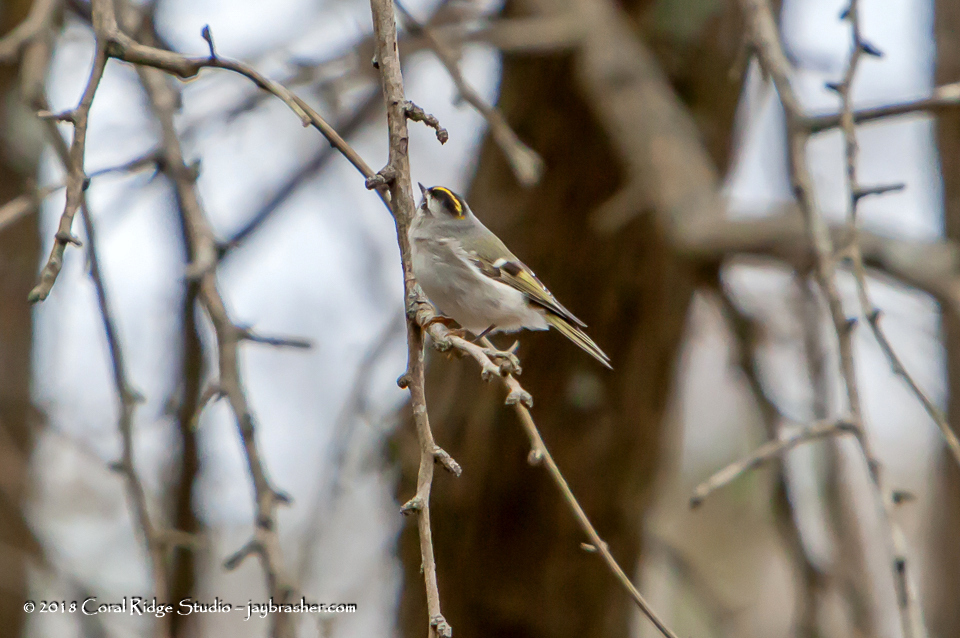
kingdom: Animalia
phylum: Chordata
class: Aves
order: Passeriformes
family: Regulidae
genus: Regulus
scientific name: Regulus satrapa
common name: Golden-crowned kinglet
